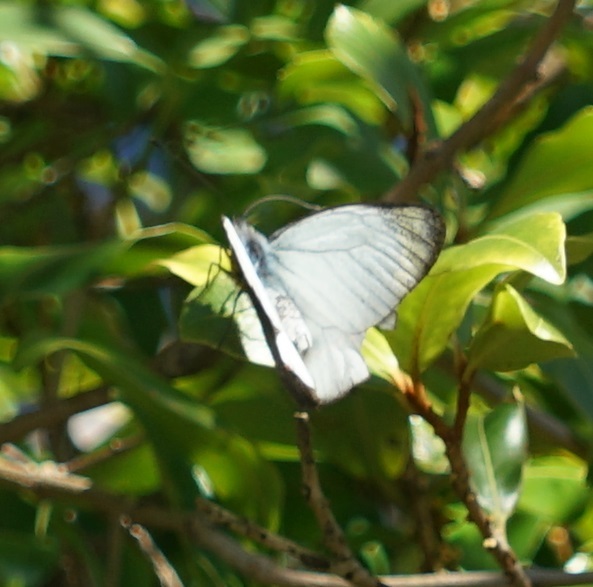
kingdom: Animalia
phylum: Arthropoda
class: Insecta
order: Lepidoptera
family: Pieridae
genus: Delias
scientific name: Delias nigrina
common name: Black jezebel
